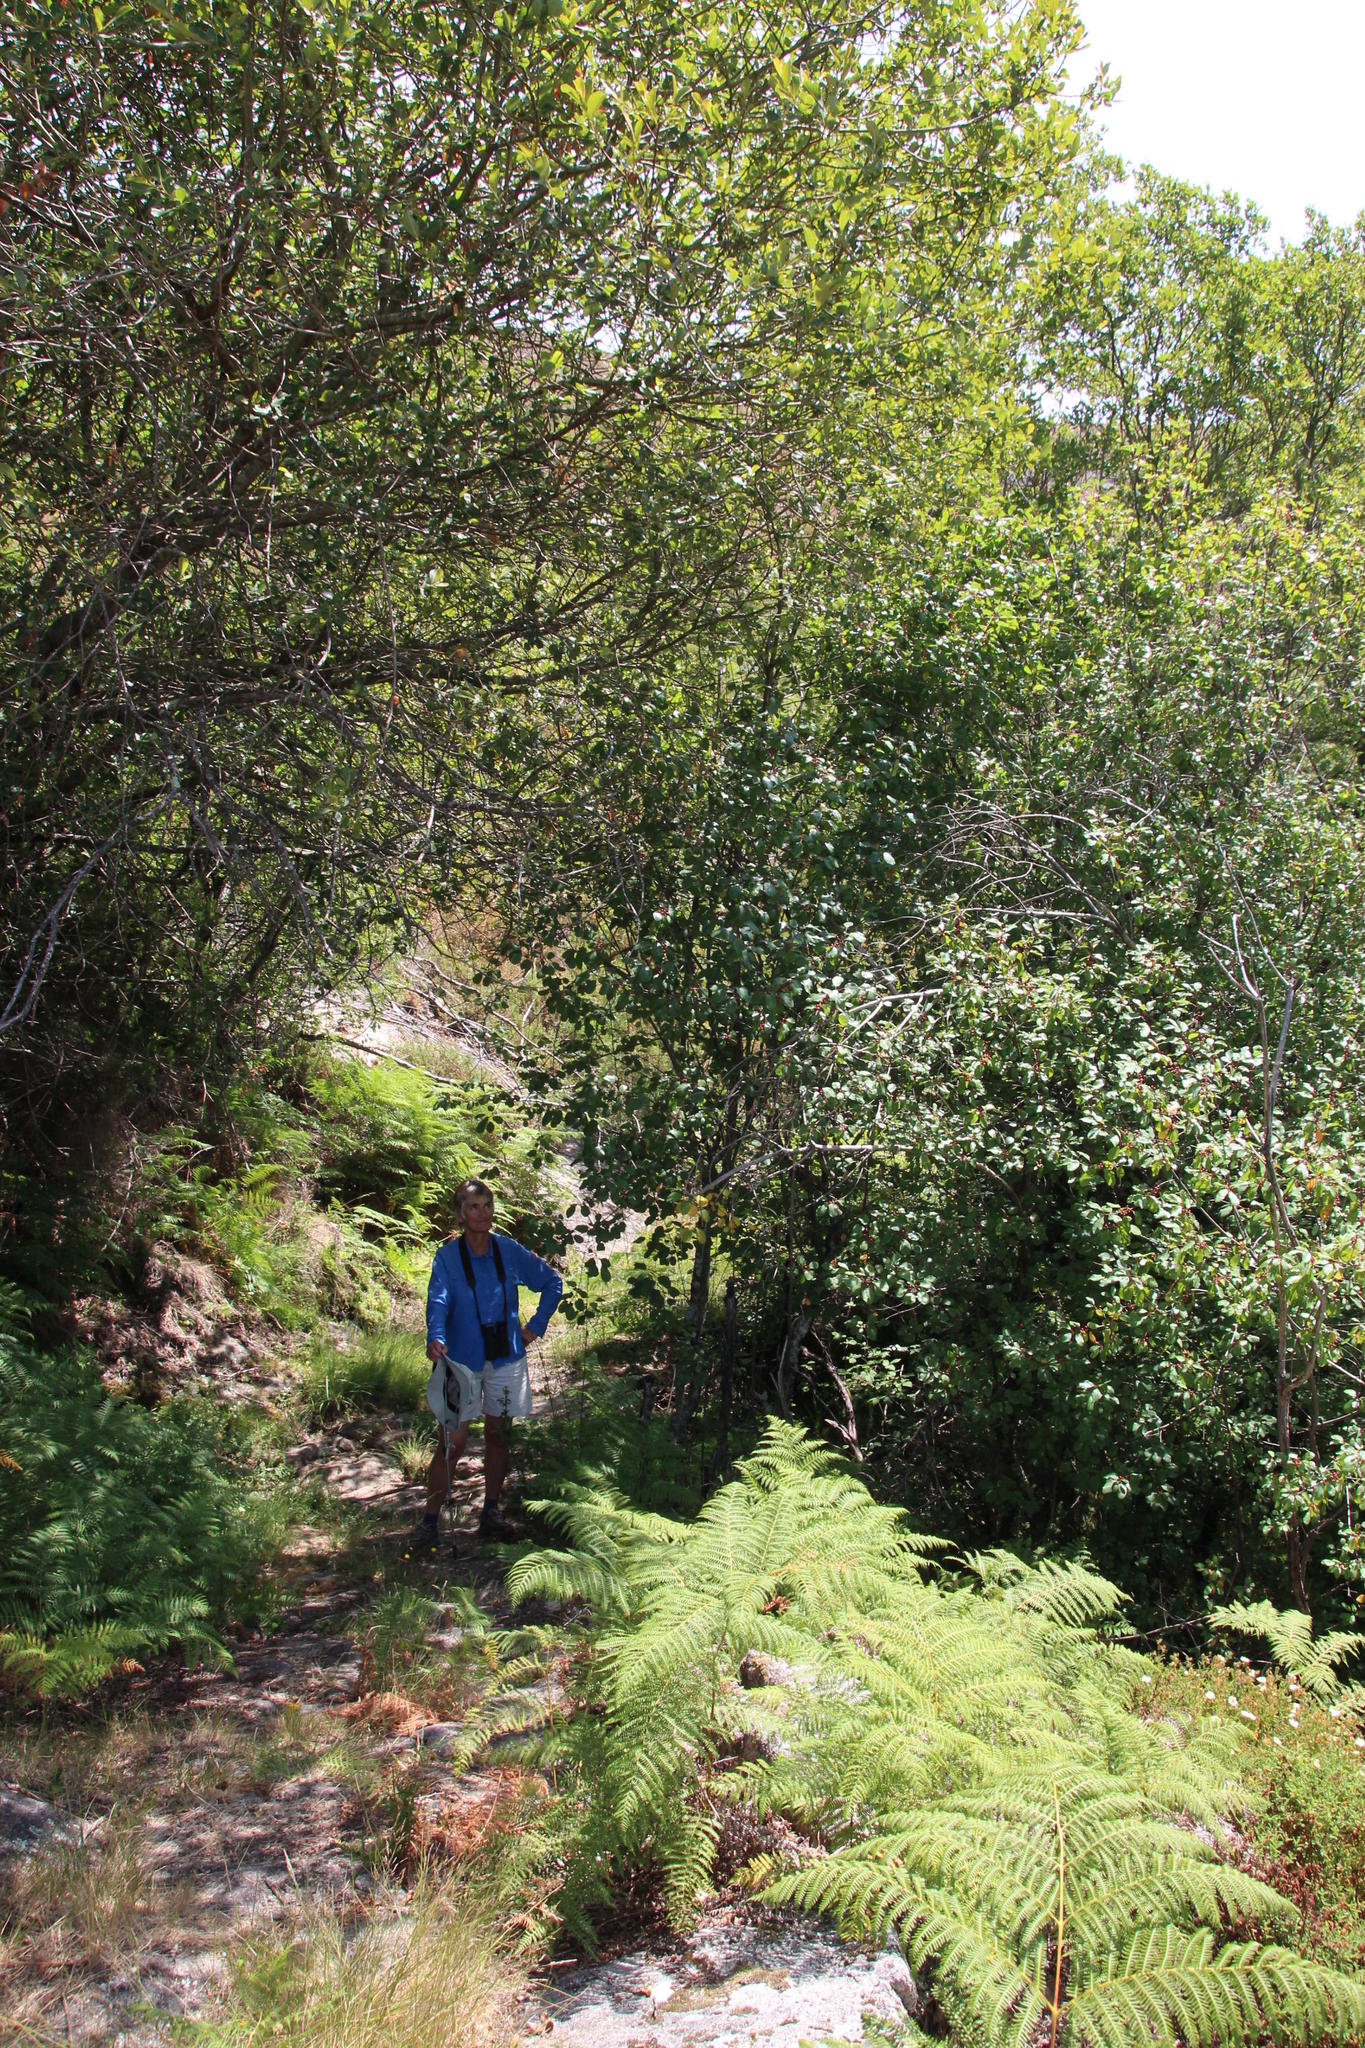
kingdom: Plantae
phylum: Tracheophyta
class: Magnoliopsida
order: Rosales
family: Rhamnaceae
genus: Frangula
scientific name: Frangula alnus
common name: Alder buckthorn
